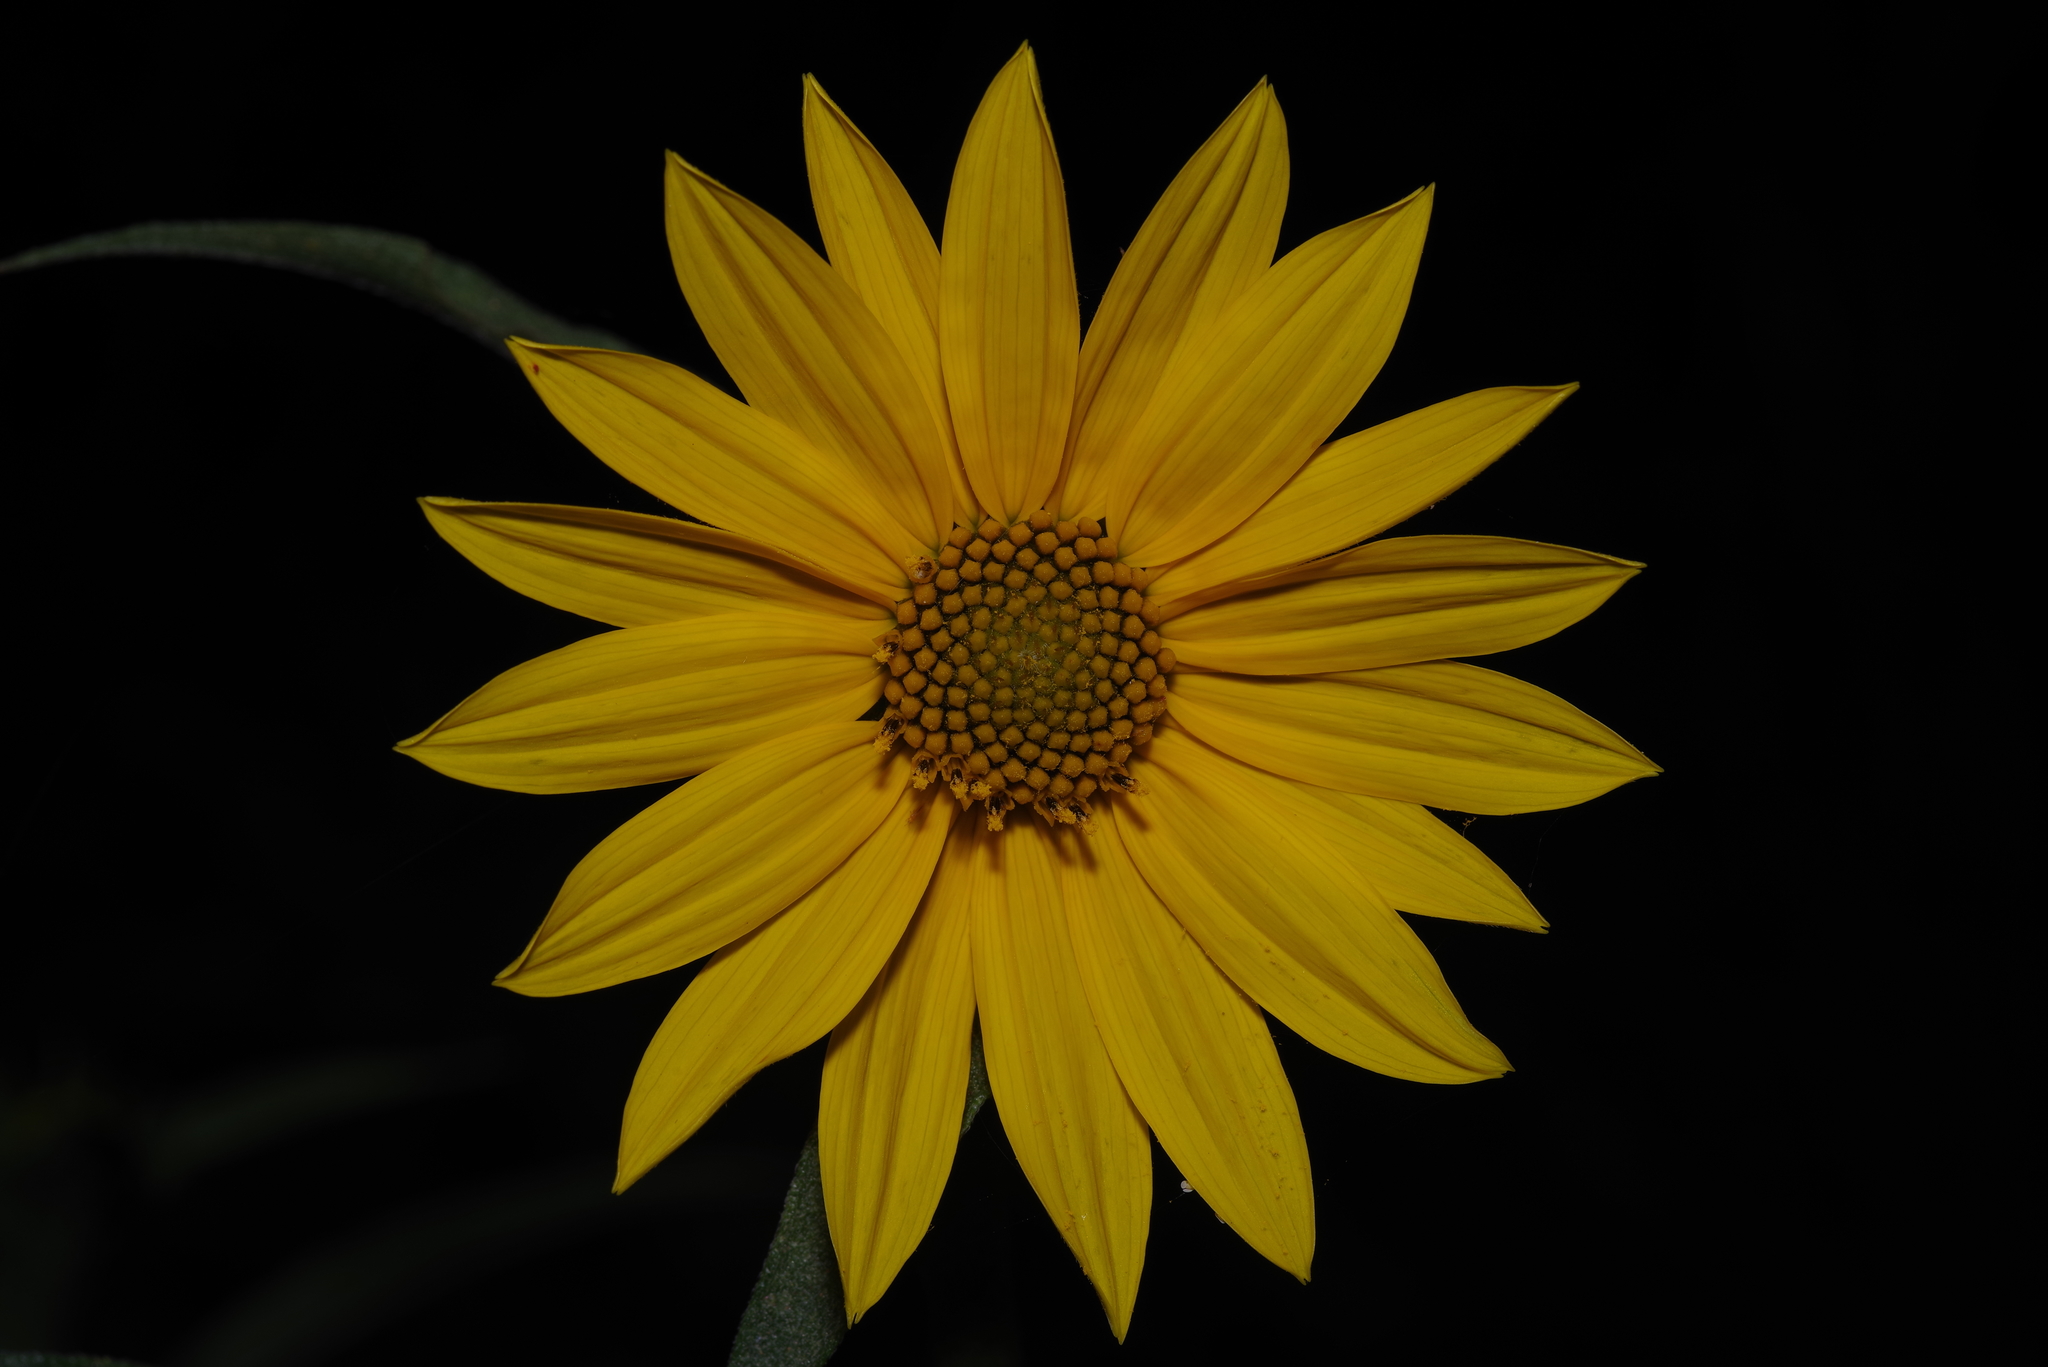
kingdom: Plantae
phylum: Tracheophyta
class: Magnoliopsida
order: Asterales
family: Asteraceae
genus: Helianthus
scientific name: Helianthus maximiliani
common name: Maximilian's sunflower
